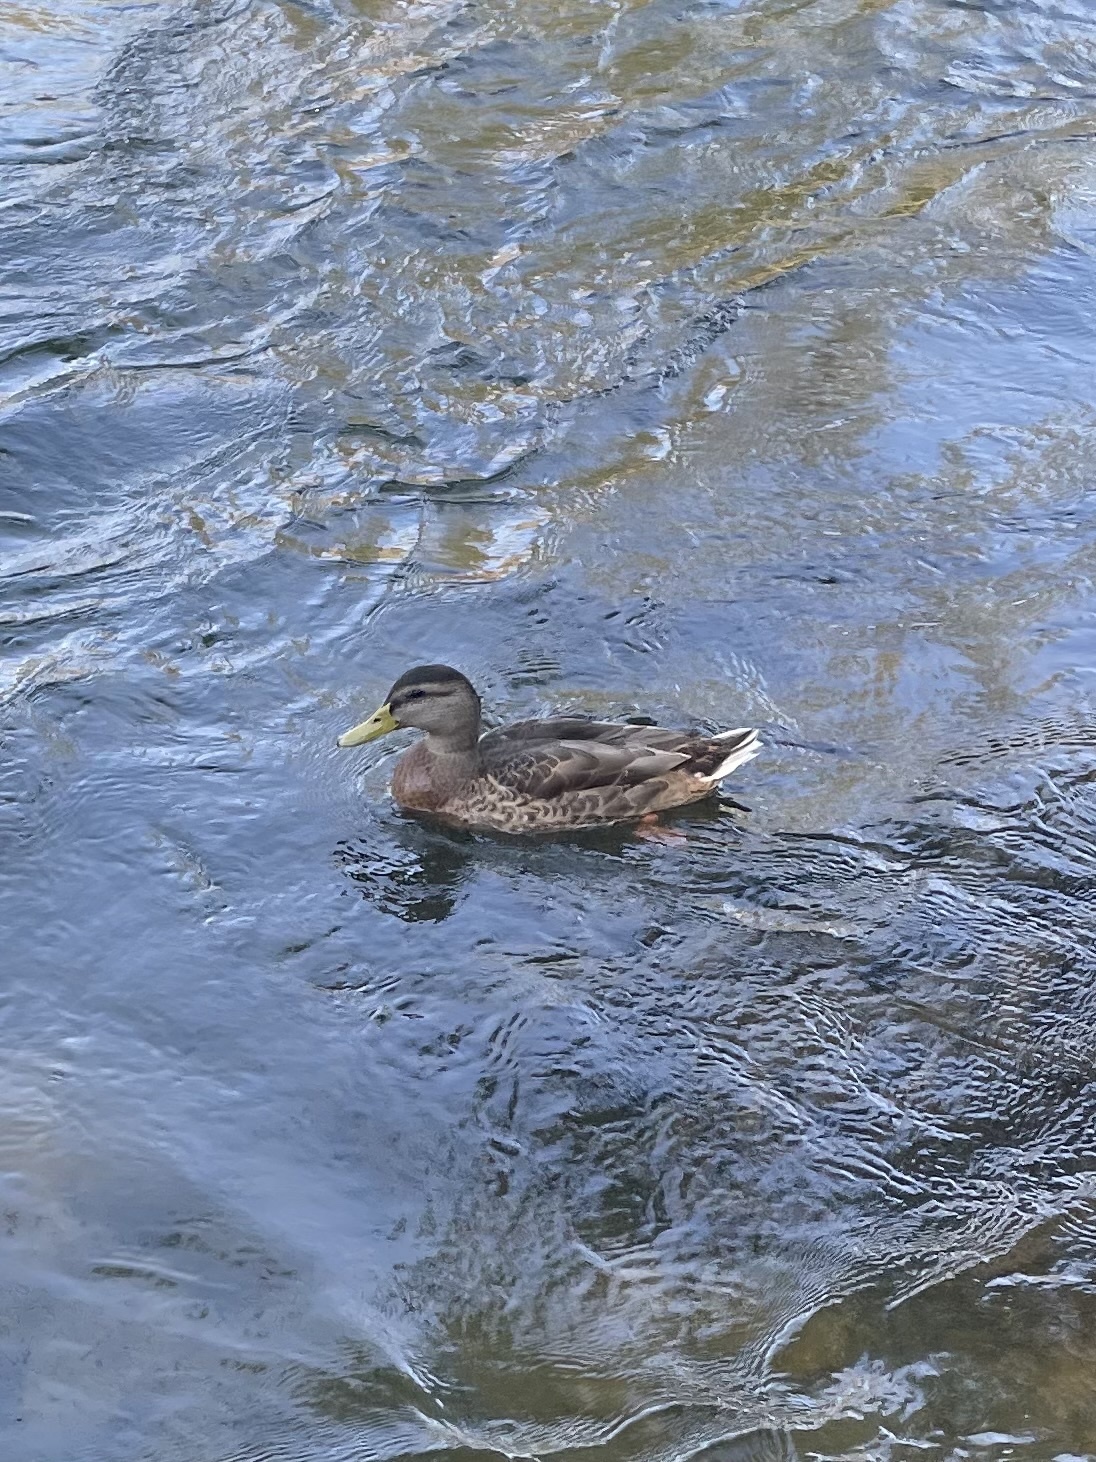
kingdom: Animalia
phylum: Chordata
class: Aves
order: Anseriformes
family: Anatidae
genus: Anas
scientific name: Anas platyrhynchos
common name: Mallard
